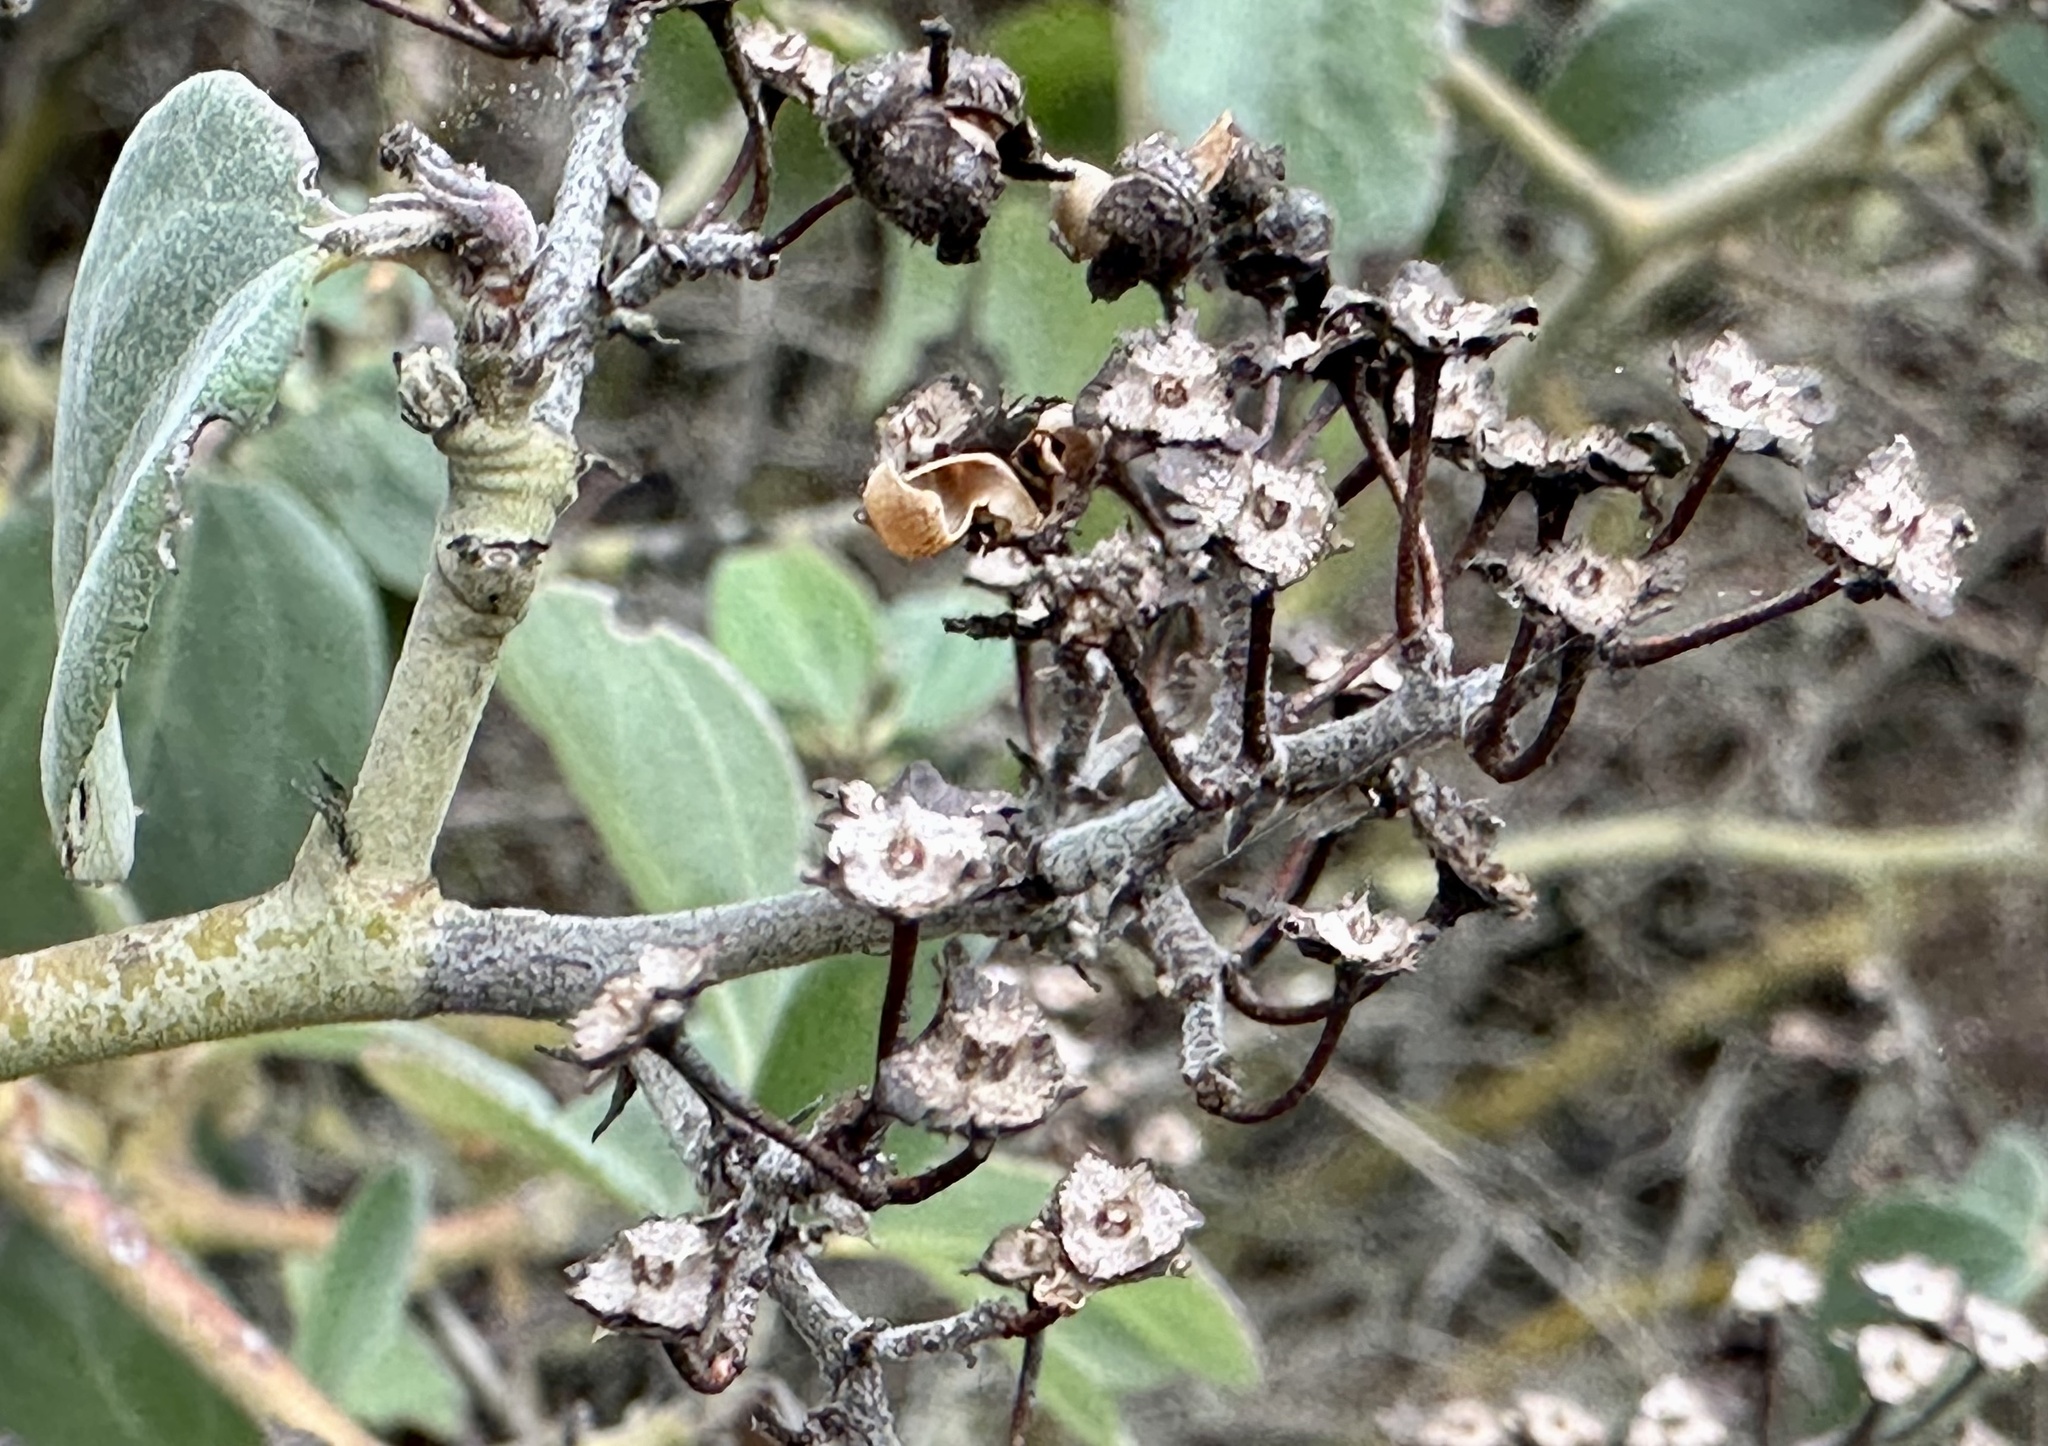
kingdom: Plantae
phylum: Tracheophyta
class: Magnoliopsida
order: Rosales
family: Rhamnaceae
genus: Ceanothus
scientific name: Ceanothus incanus
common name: Coast whitethorn
